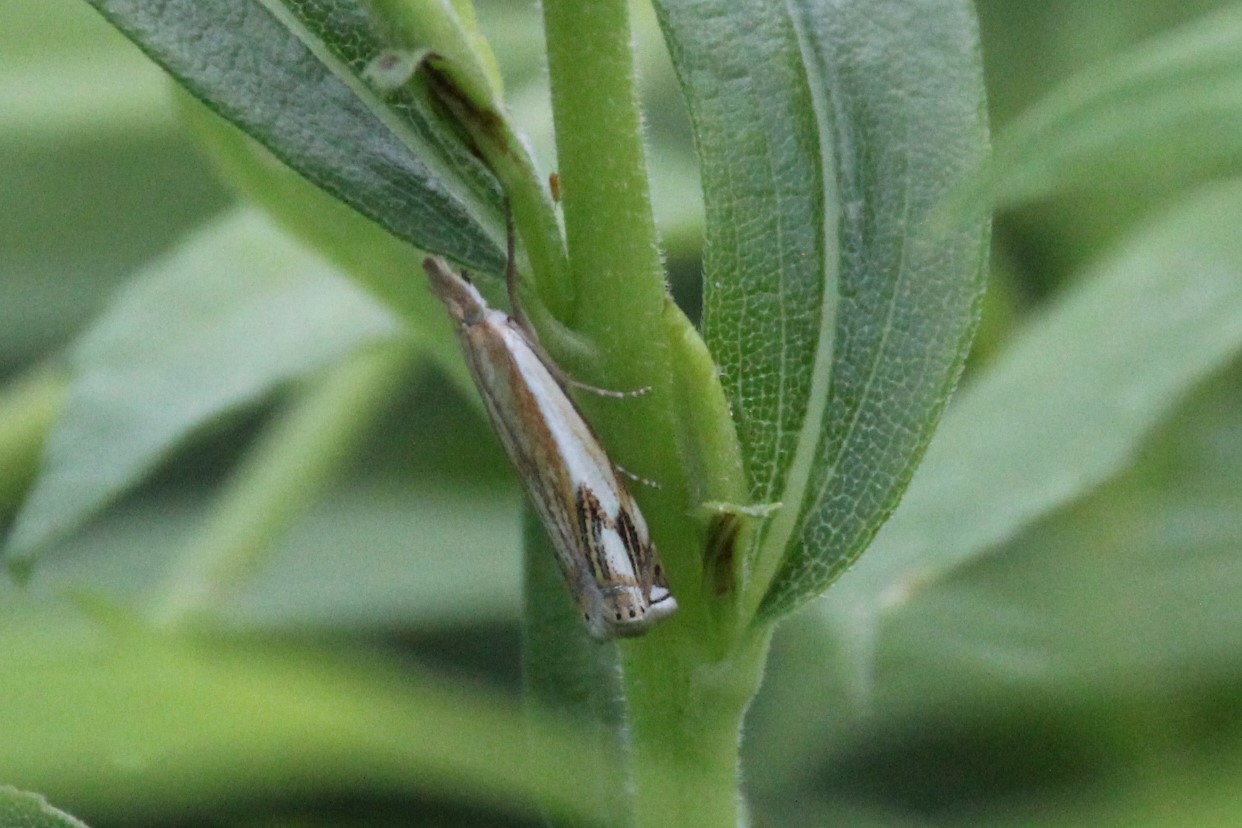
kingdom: Animalia
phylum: Arthropoda
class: Insecta
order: Lepidoptera
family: Crambidae
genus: Crambus
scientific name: Crambus agitatellus
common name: Double-banded grass-veneer
